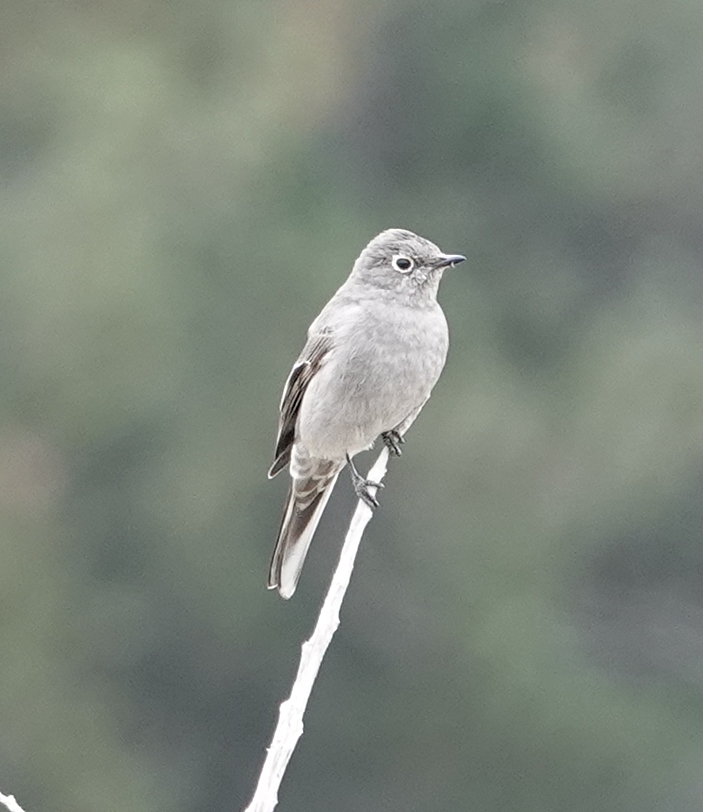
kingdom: Animalia
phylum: Chordata
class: Aves
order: Passeriformes
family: Turdidae
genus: Myadestes
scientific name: Myadestes townsendi
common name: Townsend's solitaire
